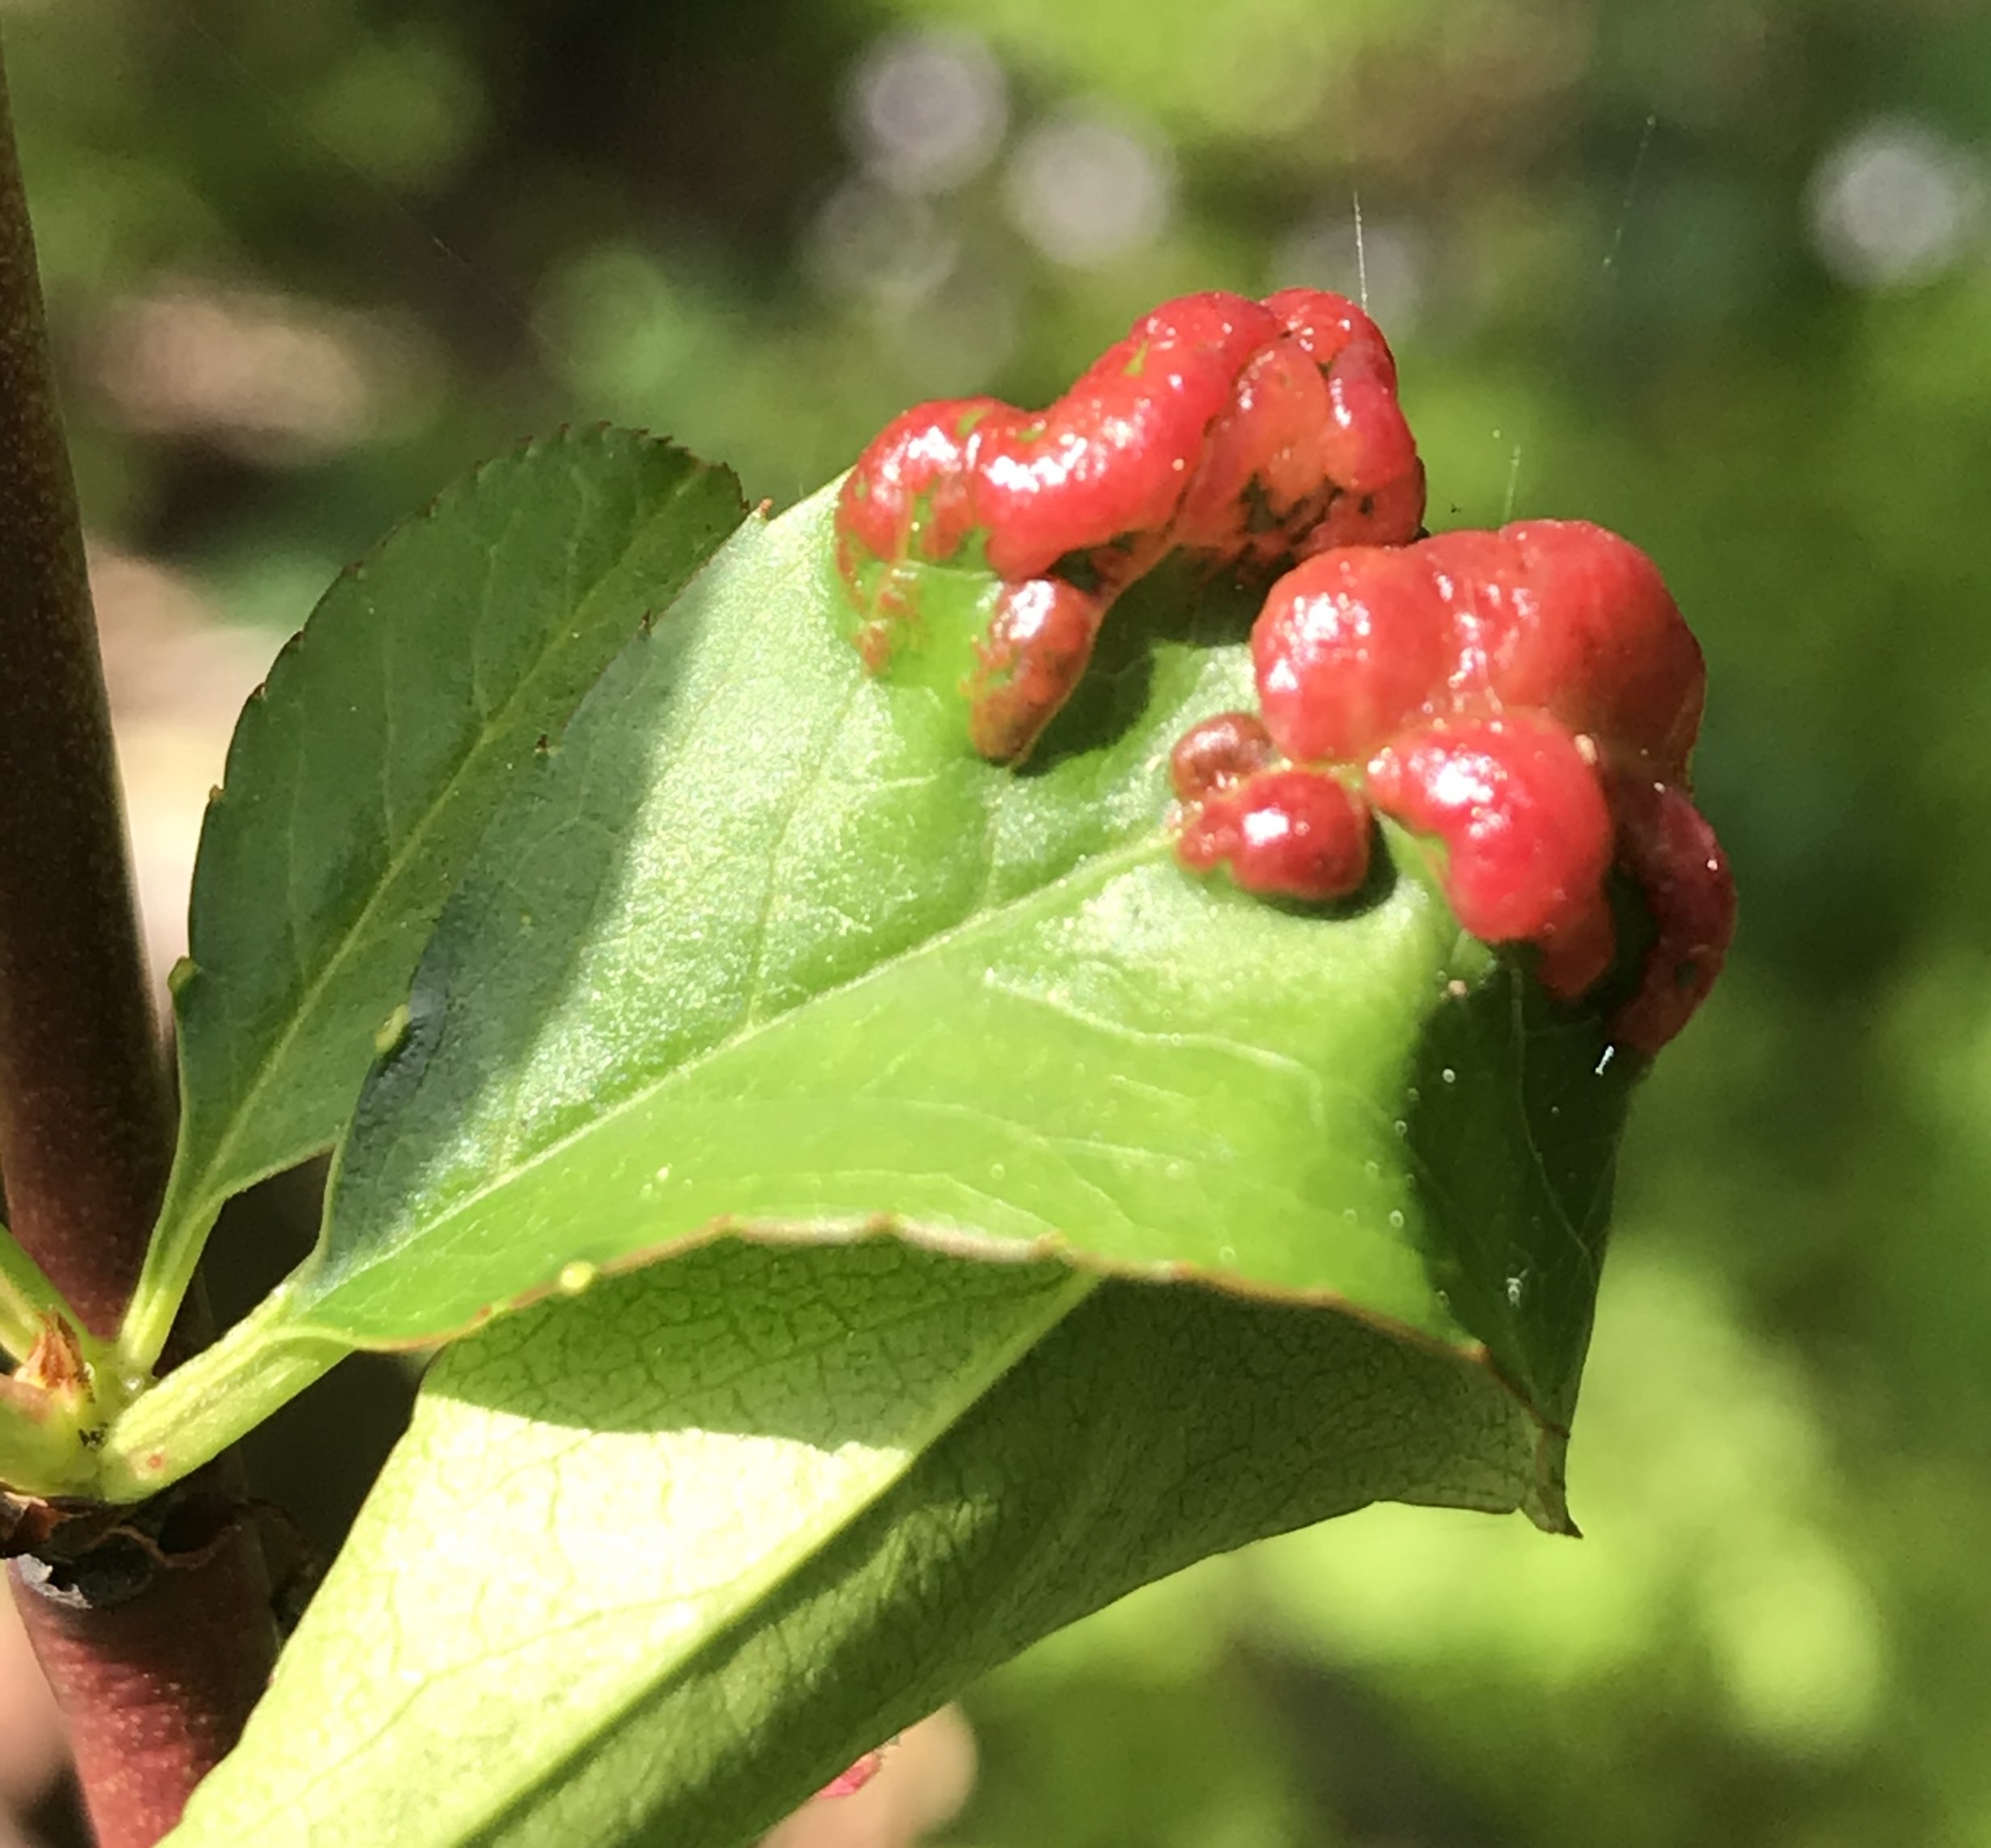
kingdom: Fungi
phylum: Ascomycota
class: Taphrinomycetes
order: Taphrinales
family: Taphrinaceae
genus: Taphrina
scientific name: Taphrina deformans
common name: Peach leaf curl
